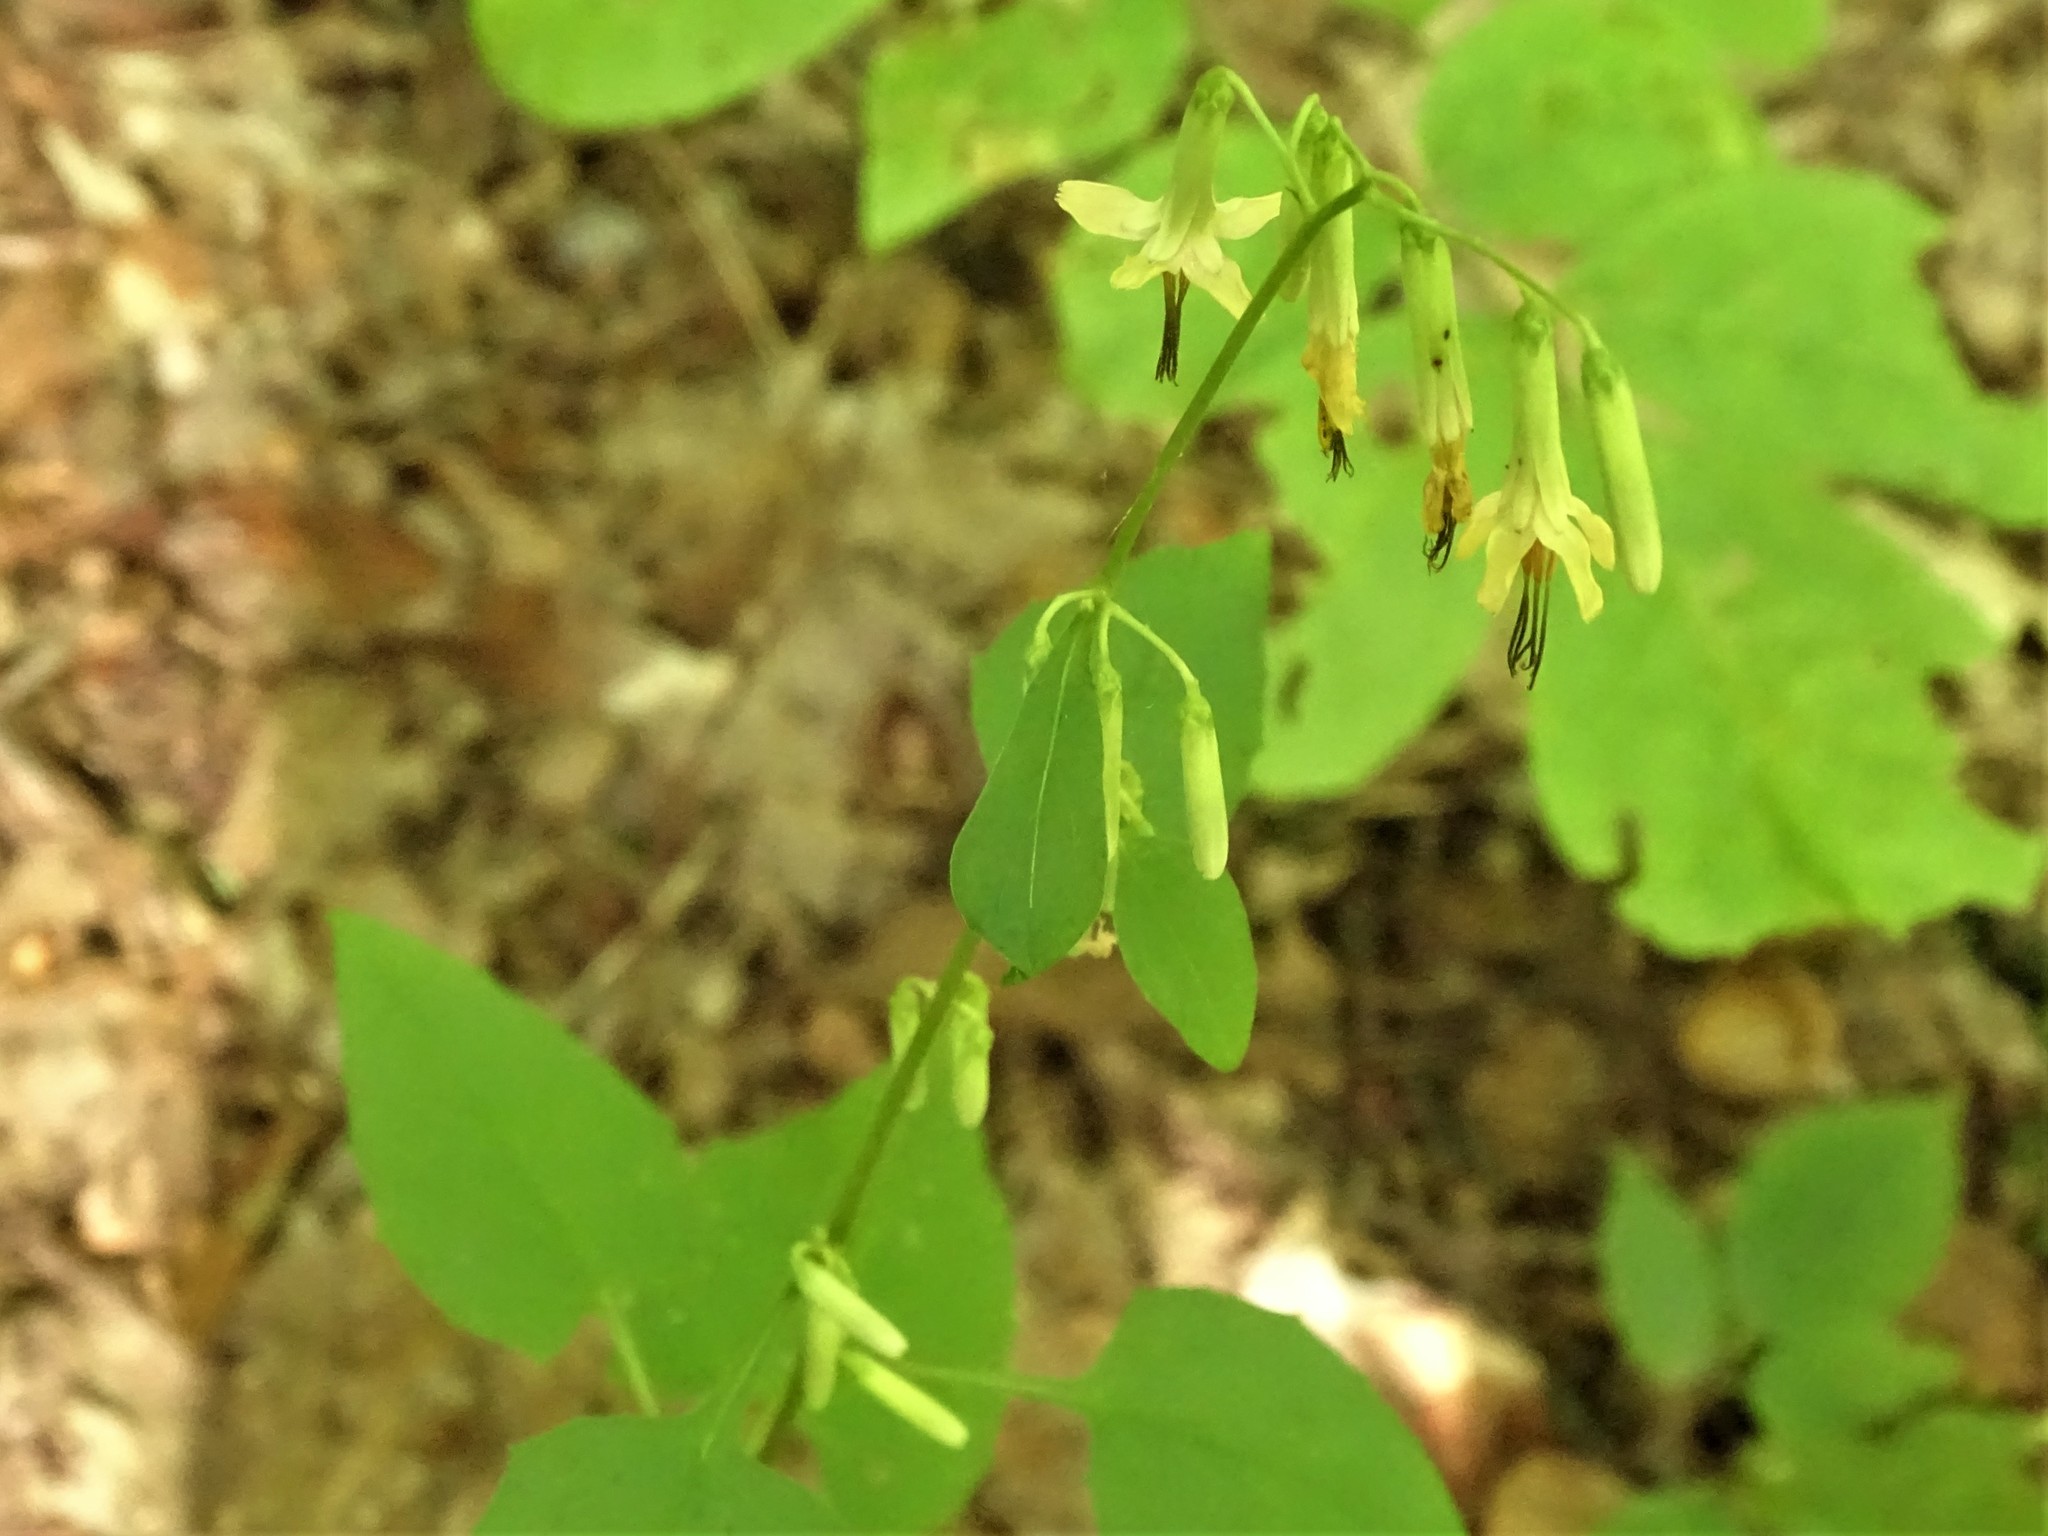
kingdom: Plantae
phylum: Tracheophyta
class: Magnoliopsida
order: Asterales
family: Asteraceae
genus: Nabalus
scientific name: Nabalus altissima
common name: Tall rattlesnakeroot
